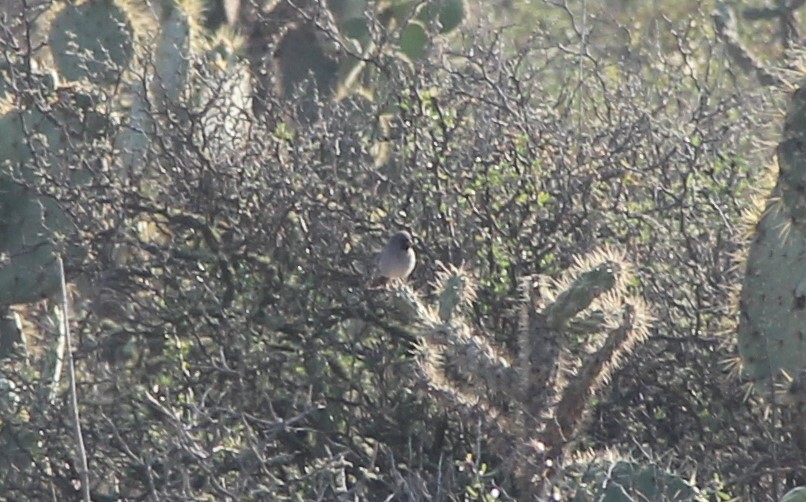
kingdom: Animalia
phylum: Chordata
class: Aves
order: Passeriformes
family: Passerellidae
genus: Spizella
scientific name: Spizella atrogularis
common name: Black-chinned sparrow
